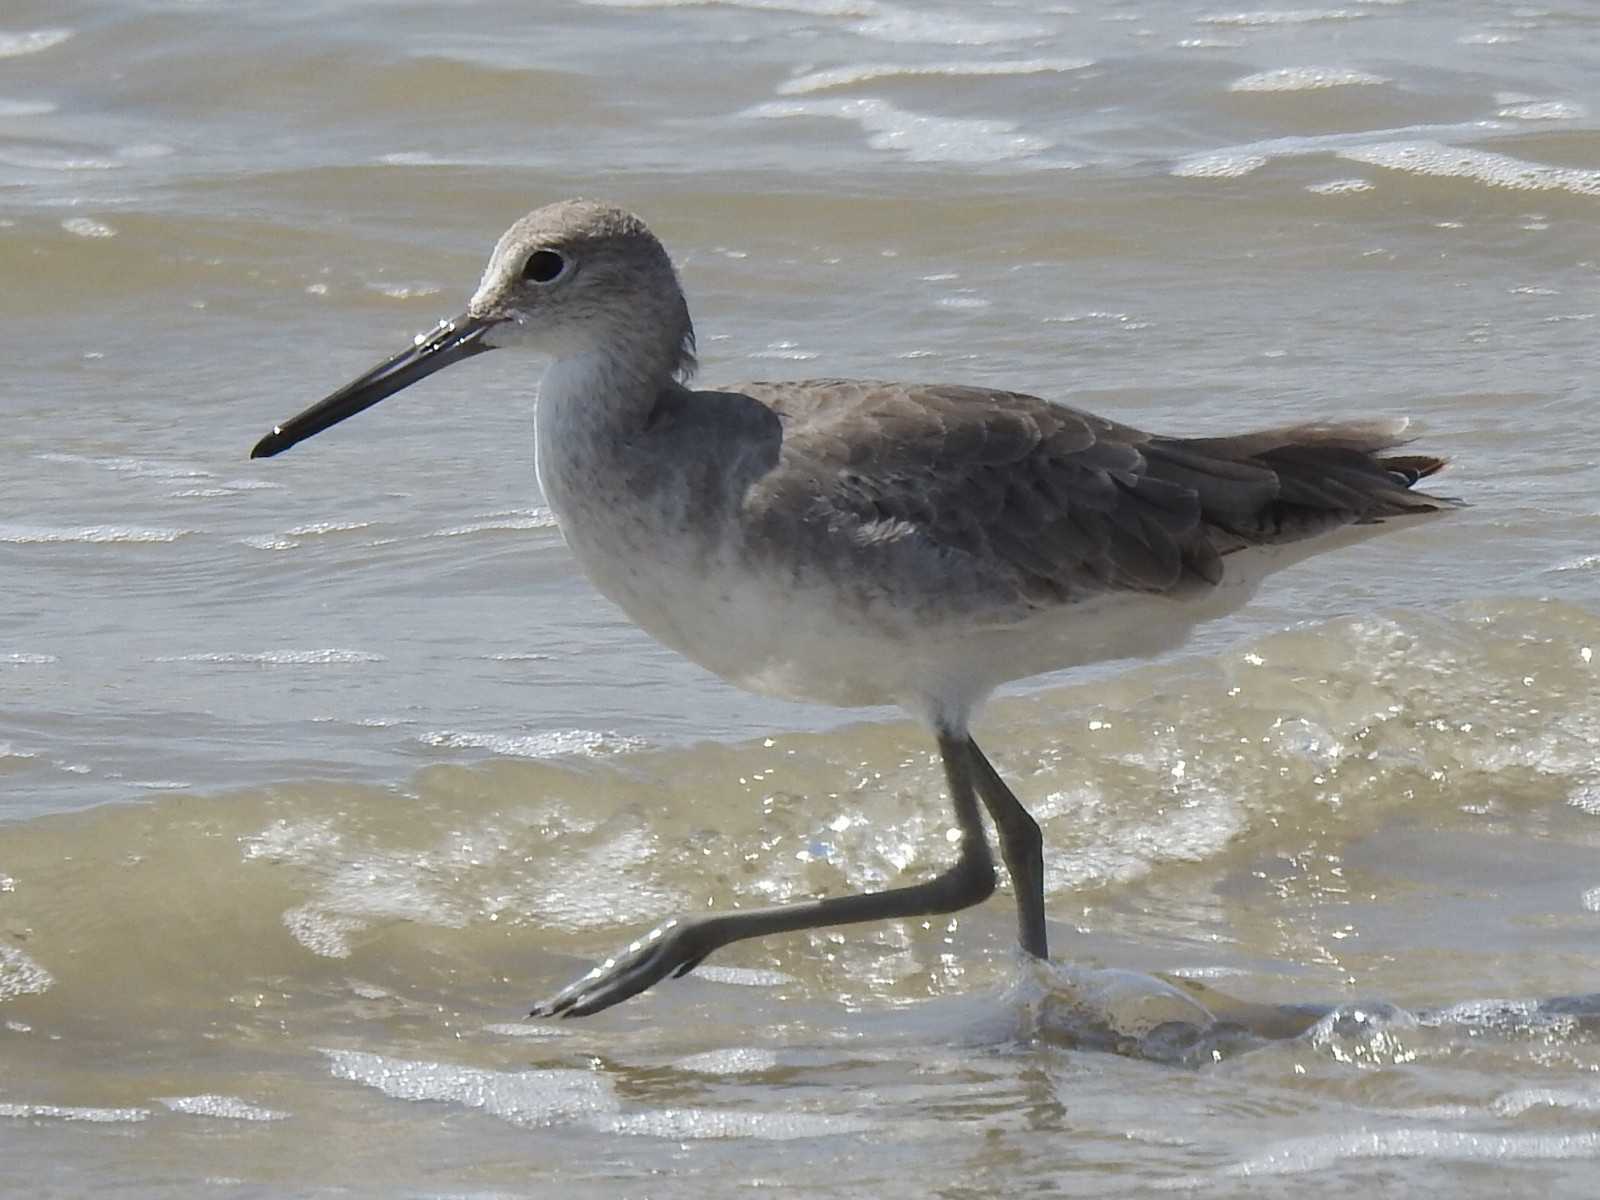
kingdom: Animalia
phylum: Chordata
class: Aves
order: Charadriiformes
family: Scolopacidae
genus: Tringa
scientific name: Tringa semipalmata
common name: Willet
